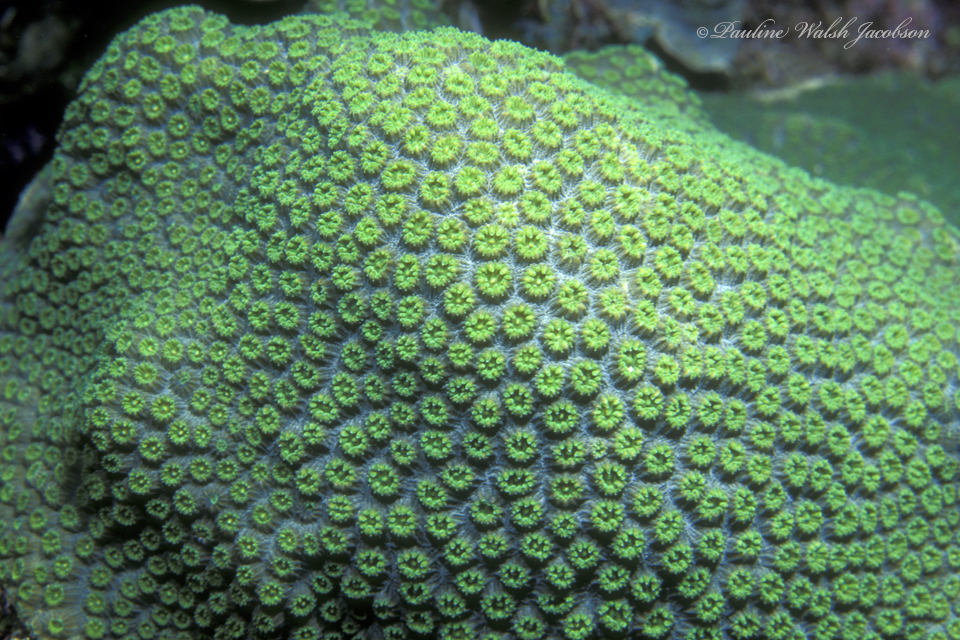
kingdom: Animalia
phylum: Cnidaria
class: Anthozoa
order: Scleractinia
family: Merulinidae
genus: Orbicella
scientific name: Orbicella faveolata
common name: Mountainous star coral
